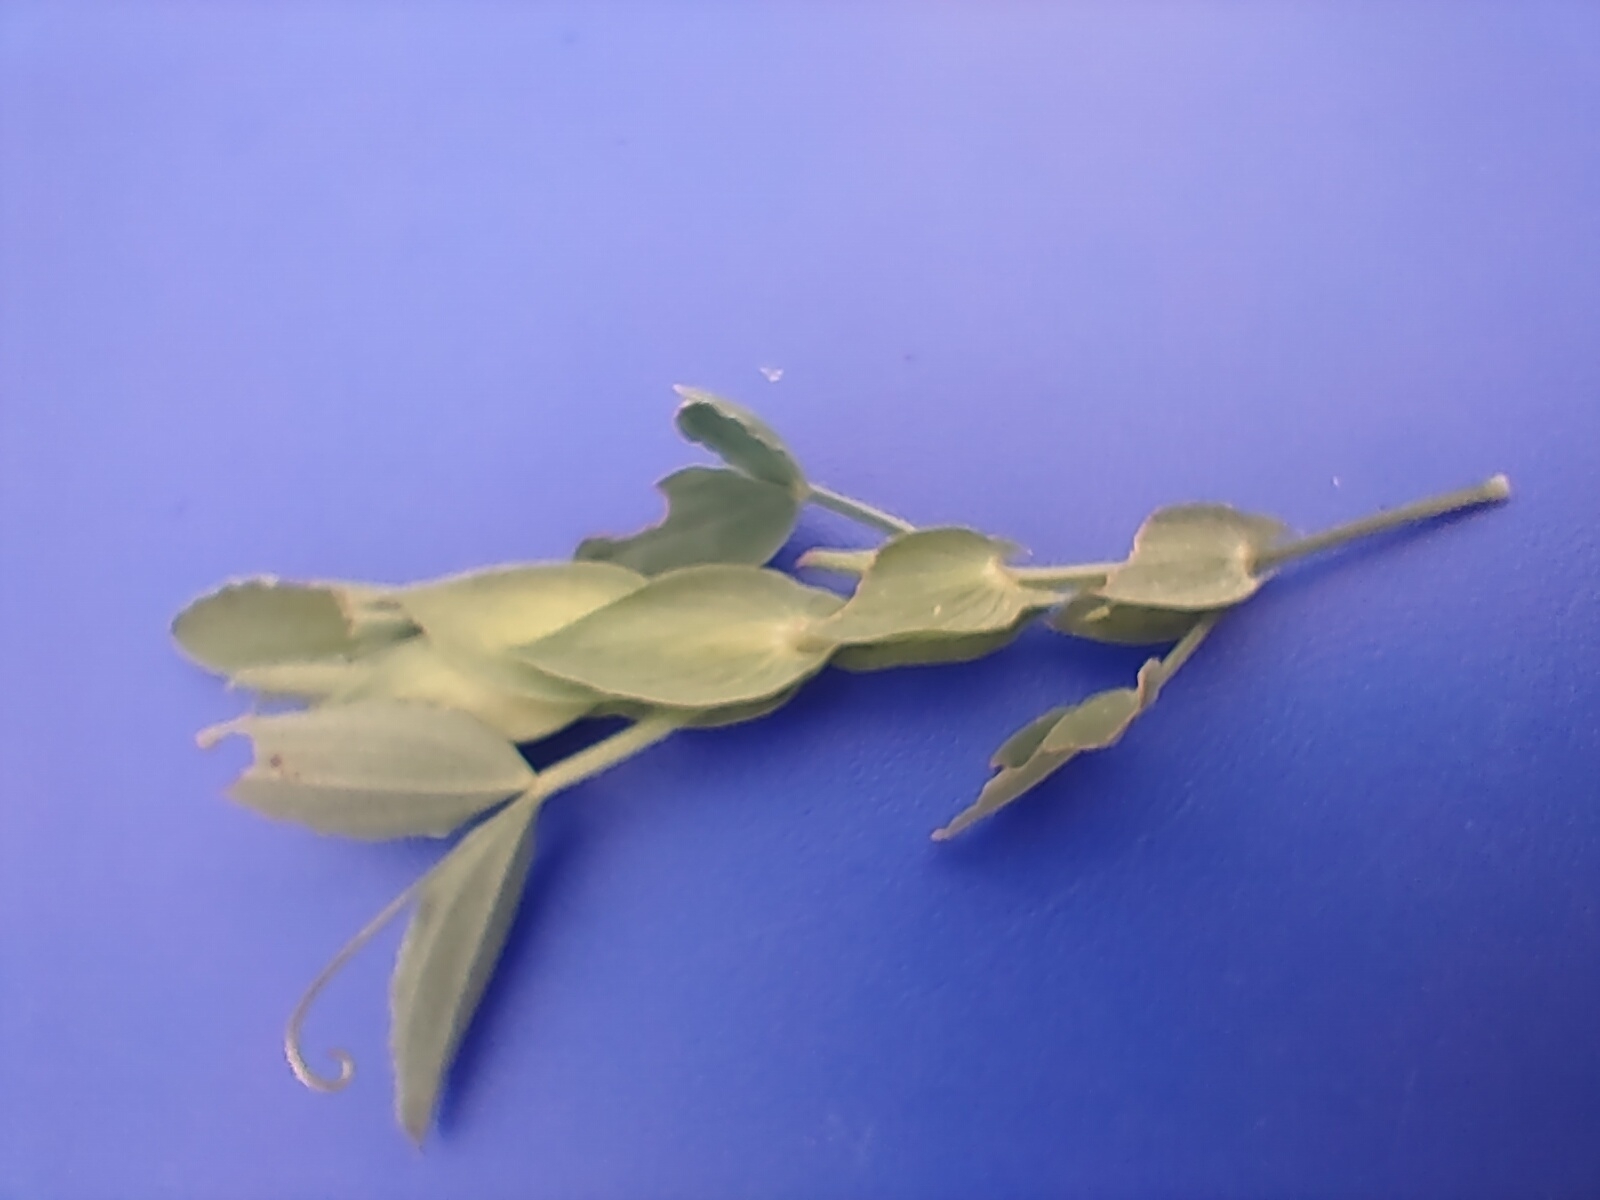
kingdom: Plantae
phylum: Tracheophyta
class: Magnoliopsida
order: Fabales
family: Fabaceae
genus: Lathyrus
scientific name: Lathyrus pratensis
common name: Meadow vetchling
